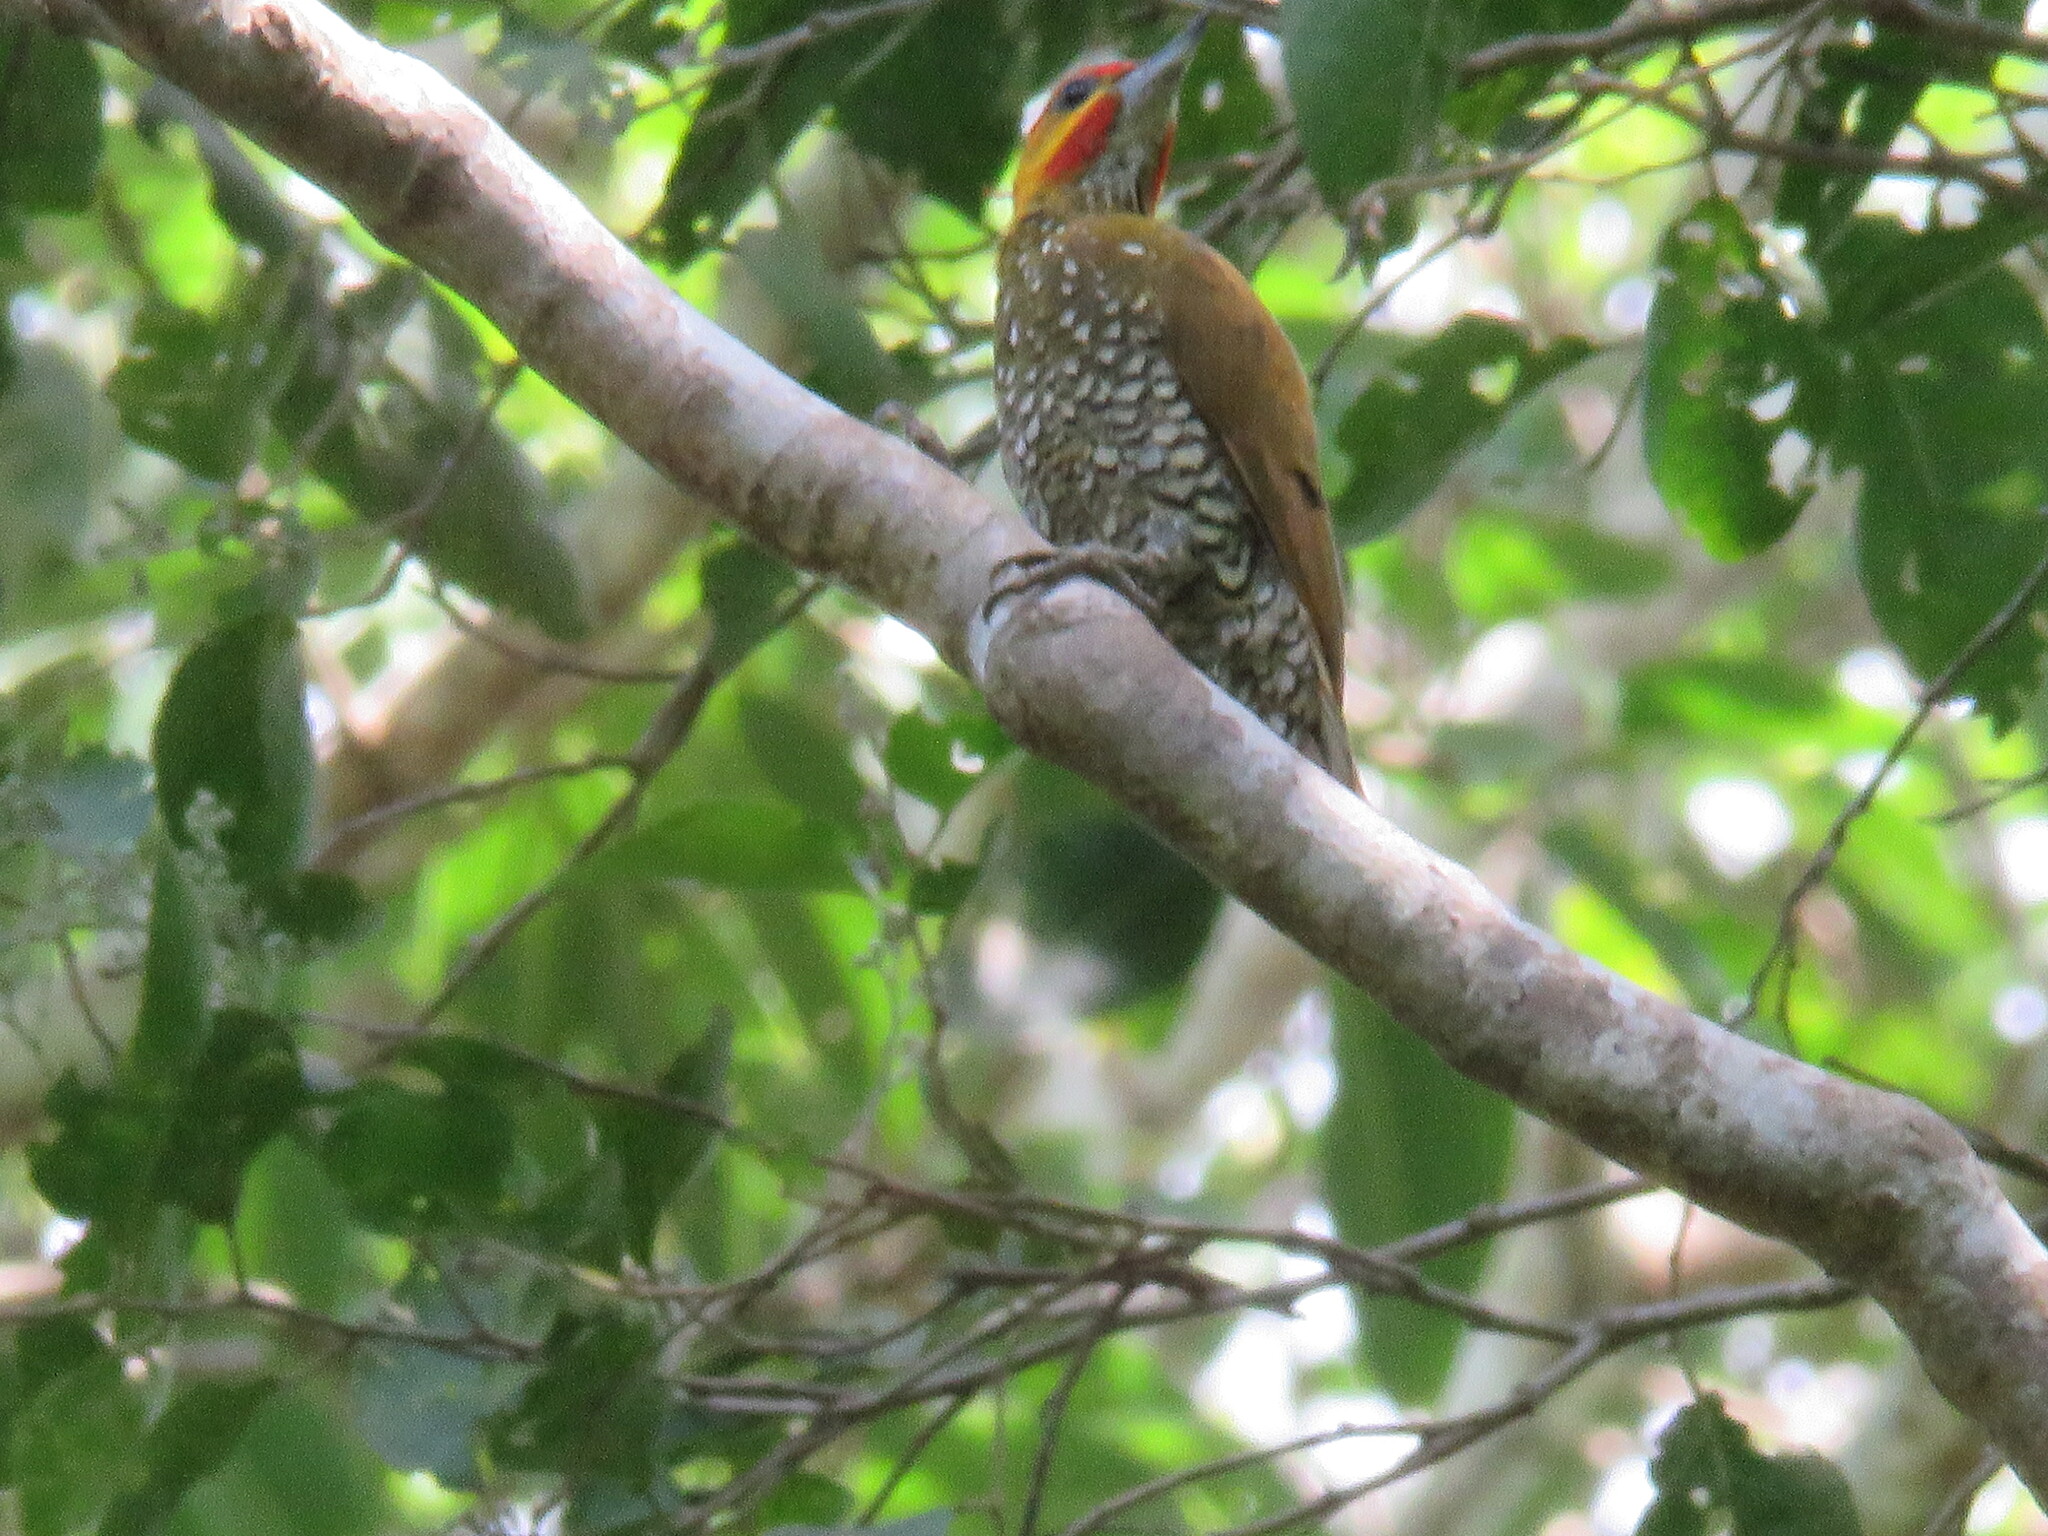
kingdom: Animalia
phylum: Chordata
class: Aves
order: Piciformes
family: Picidae
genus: Piculus
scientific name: Piculus leucolaemus
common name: White-throated woodpecker
